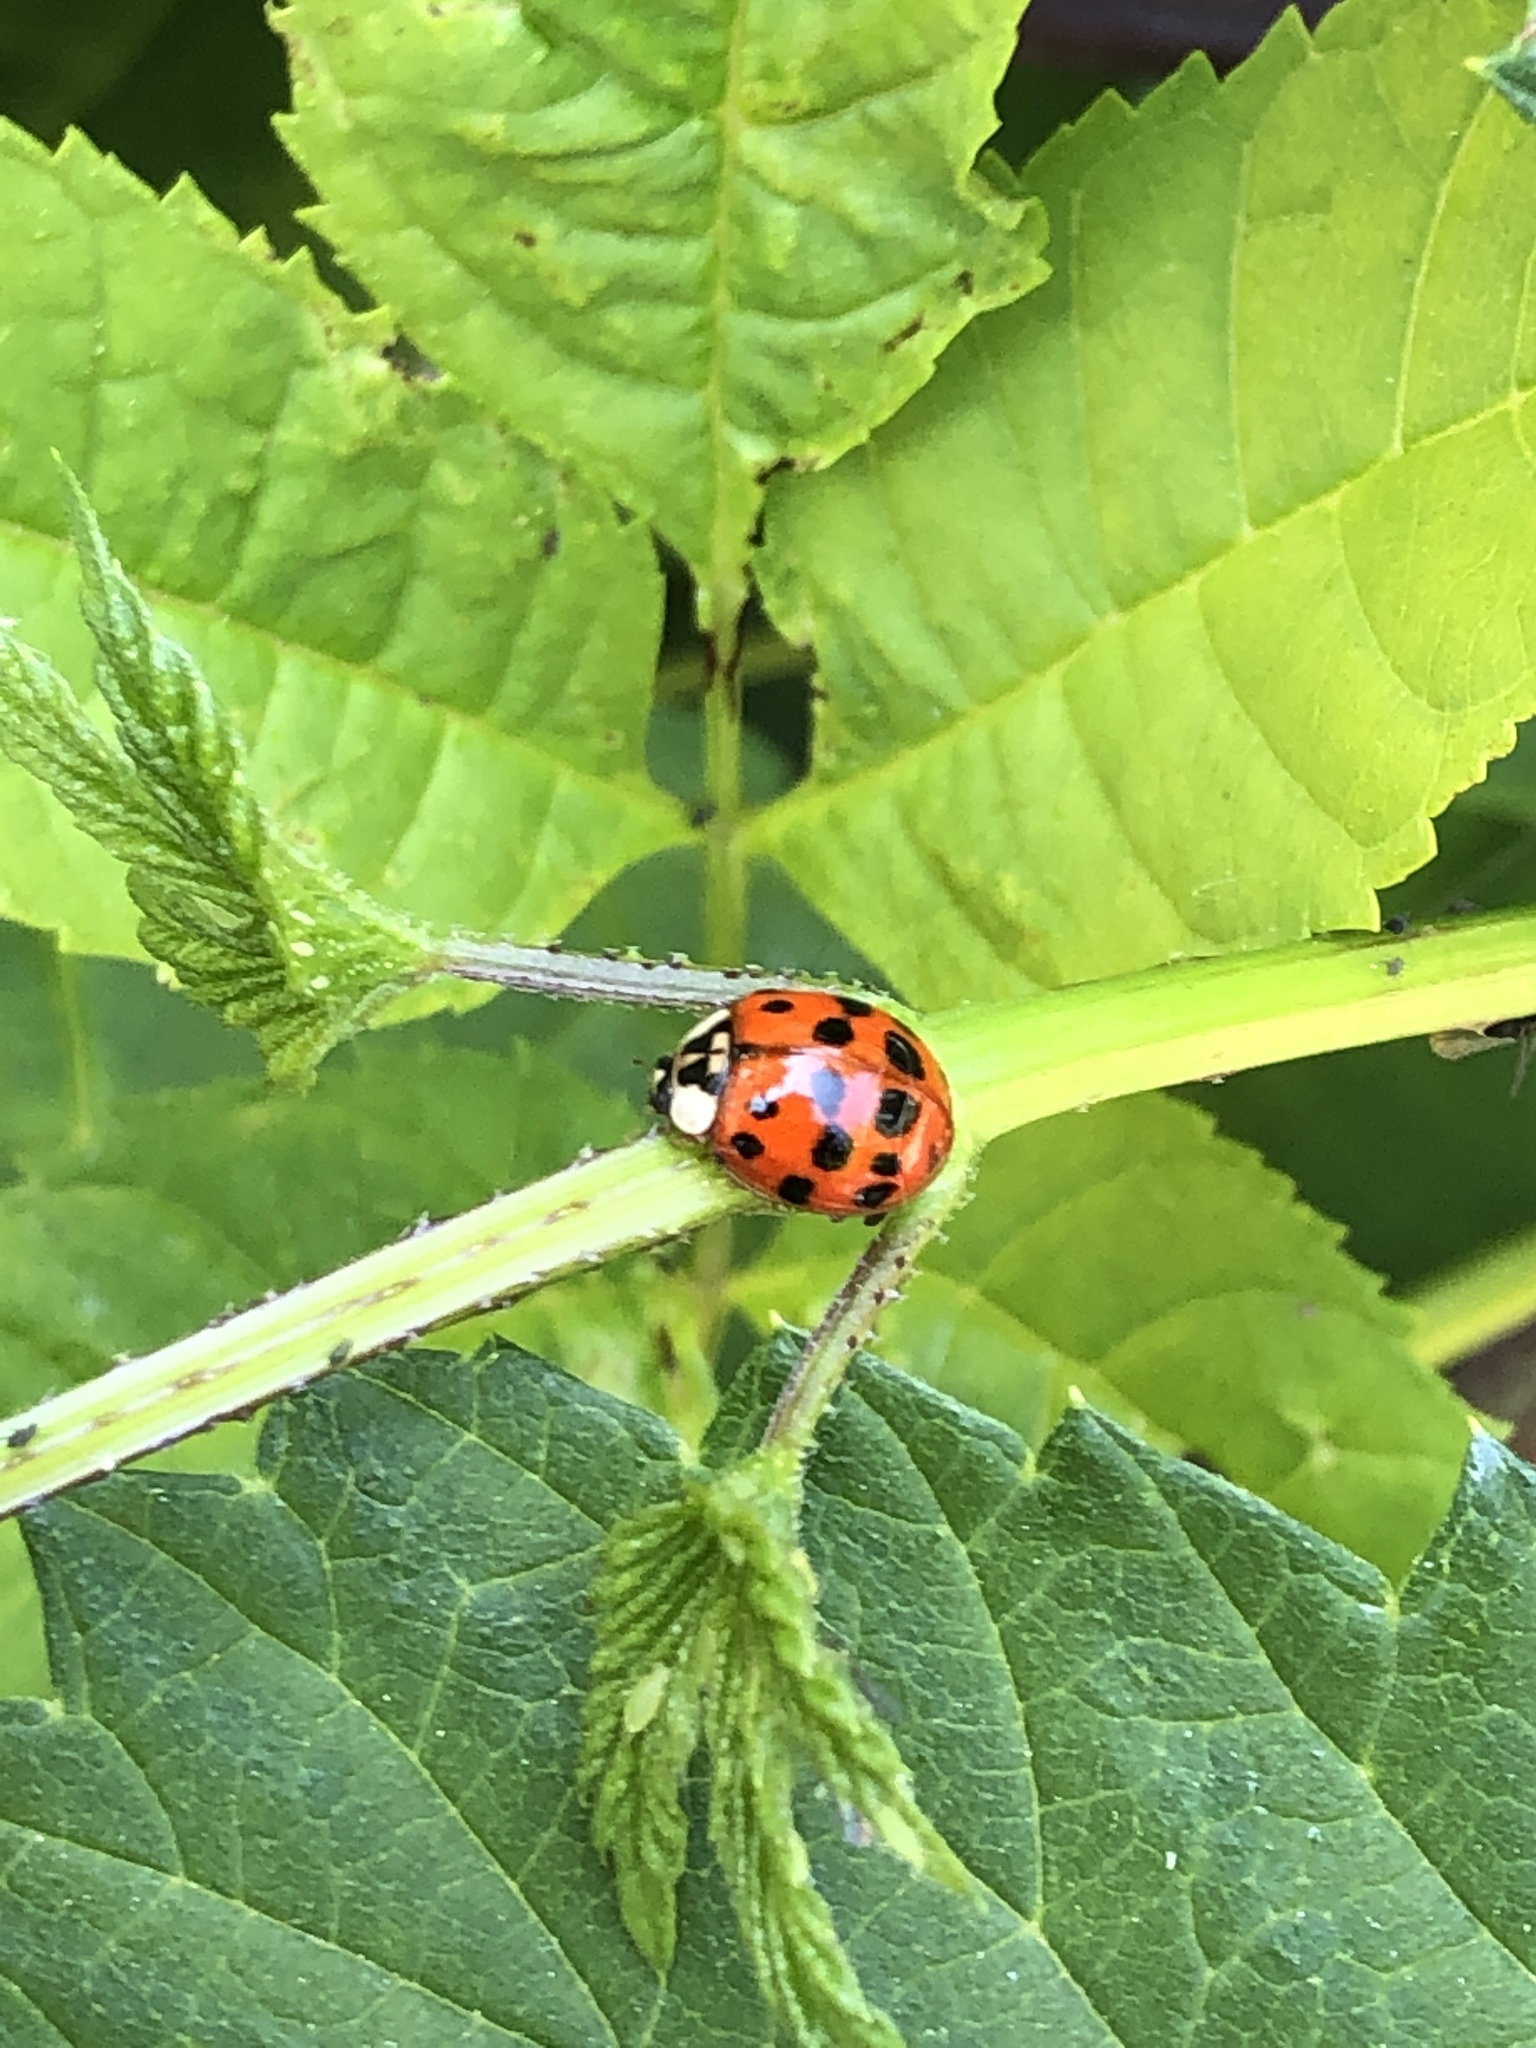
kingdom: Animalia
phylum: Arthropoda
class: Insecta
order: Coleoptera
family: Coccinellidae
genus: Harmonia
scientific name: Harmonia axyridis
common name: Harlequin ladybird
